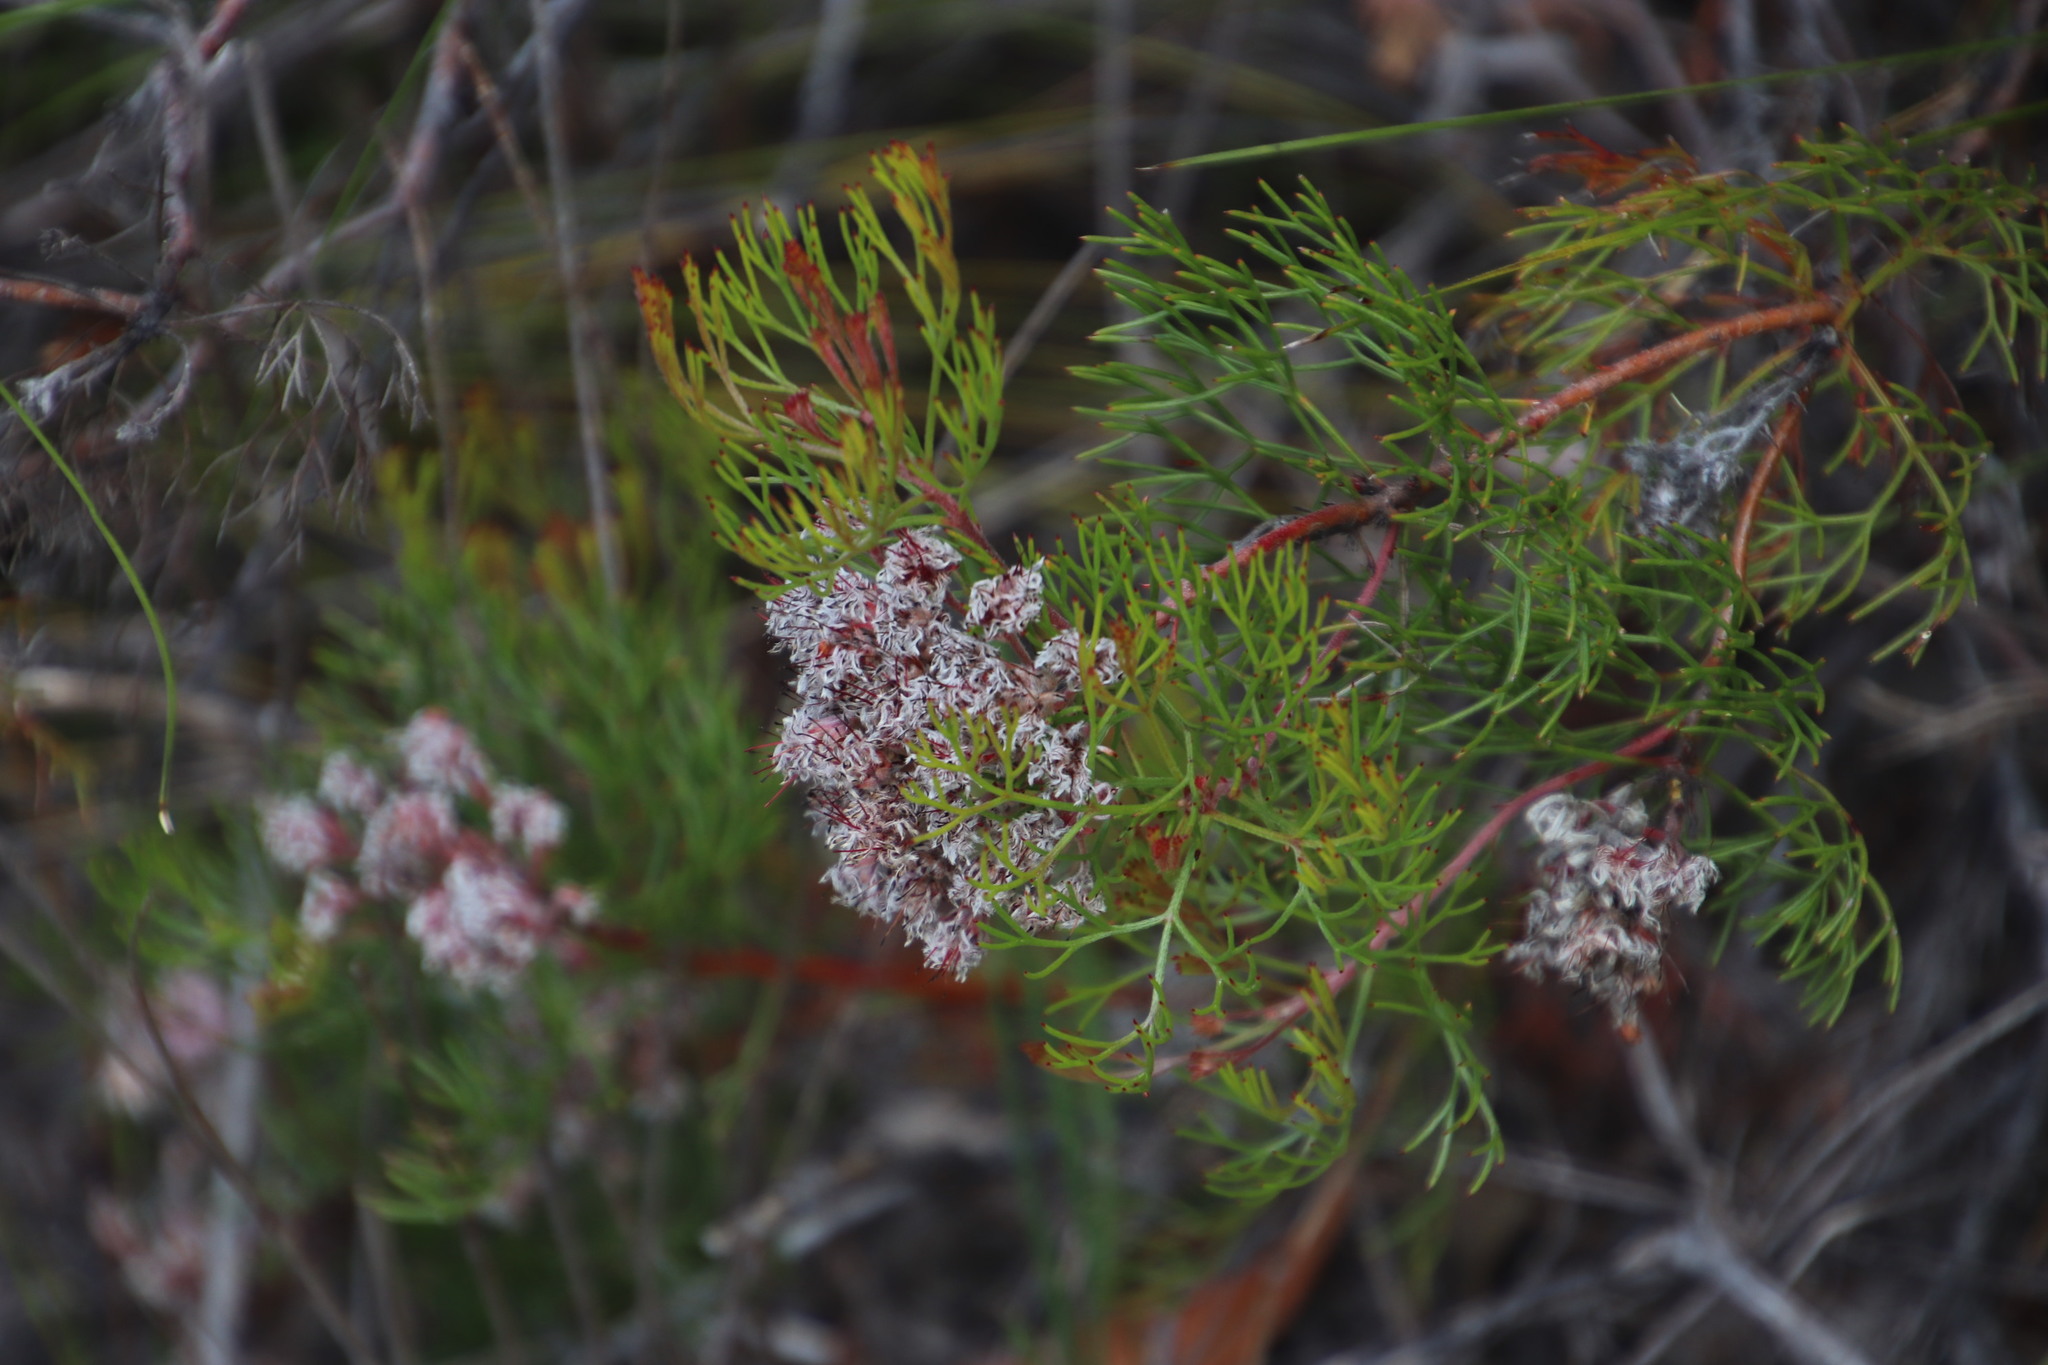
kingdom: Plantae
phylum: Tracheophyta
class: Magnoliopsida
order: Proteales
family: Proteaceae
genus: Serruria
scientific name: Serruria fasciflora
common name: Common pin spiderhead
